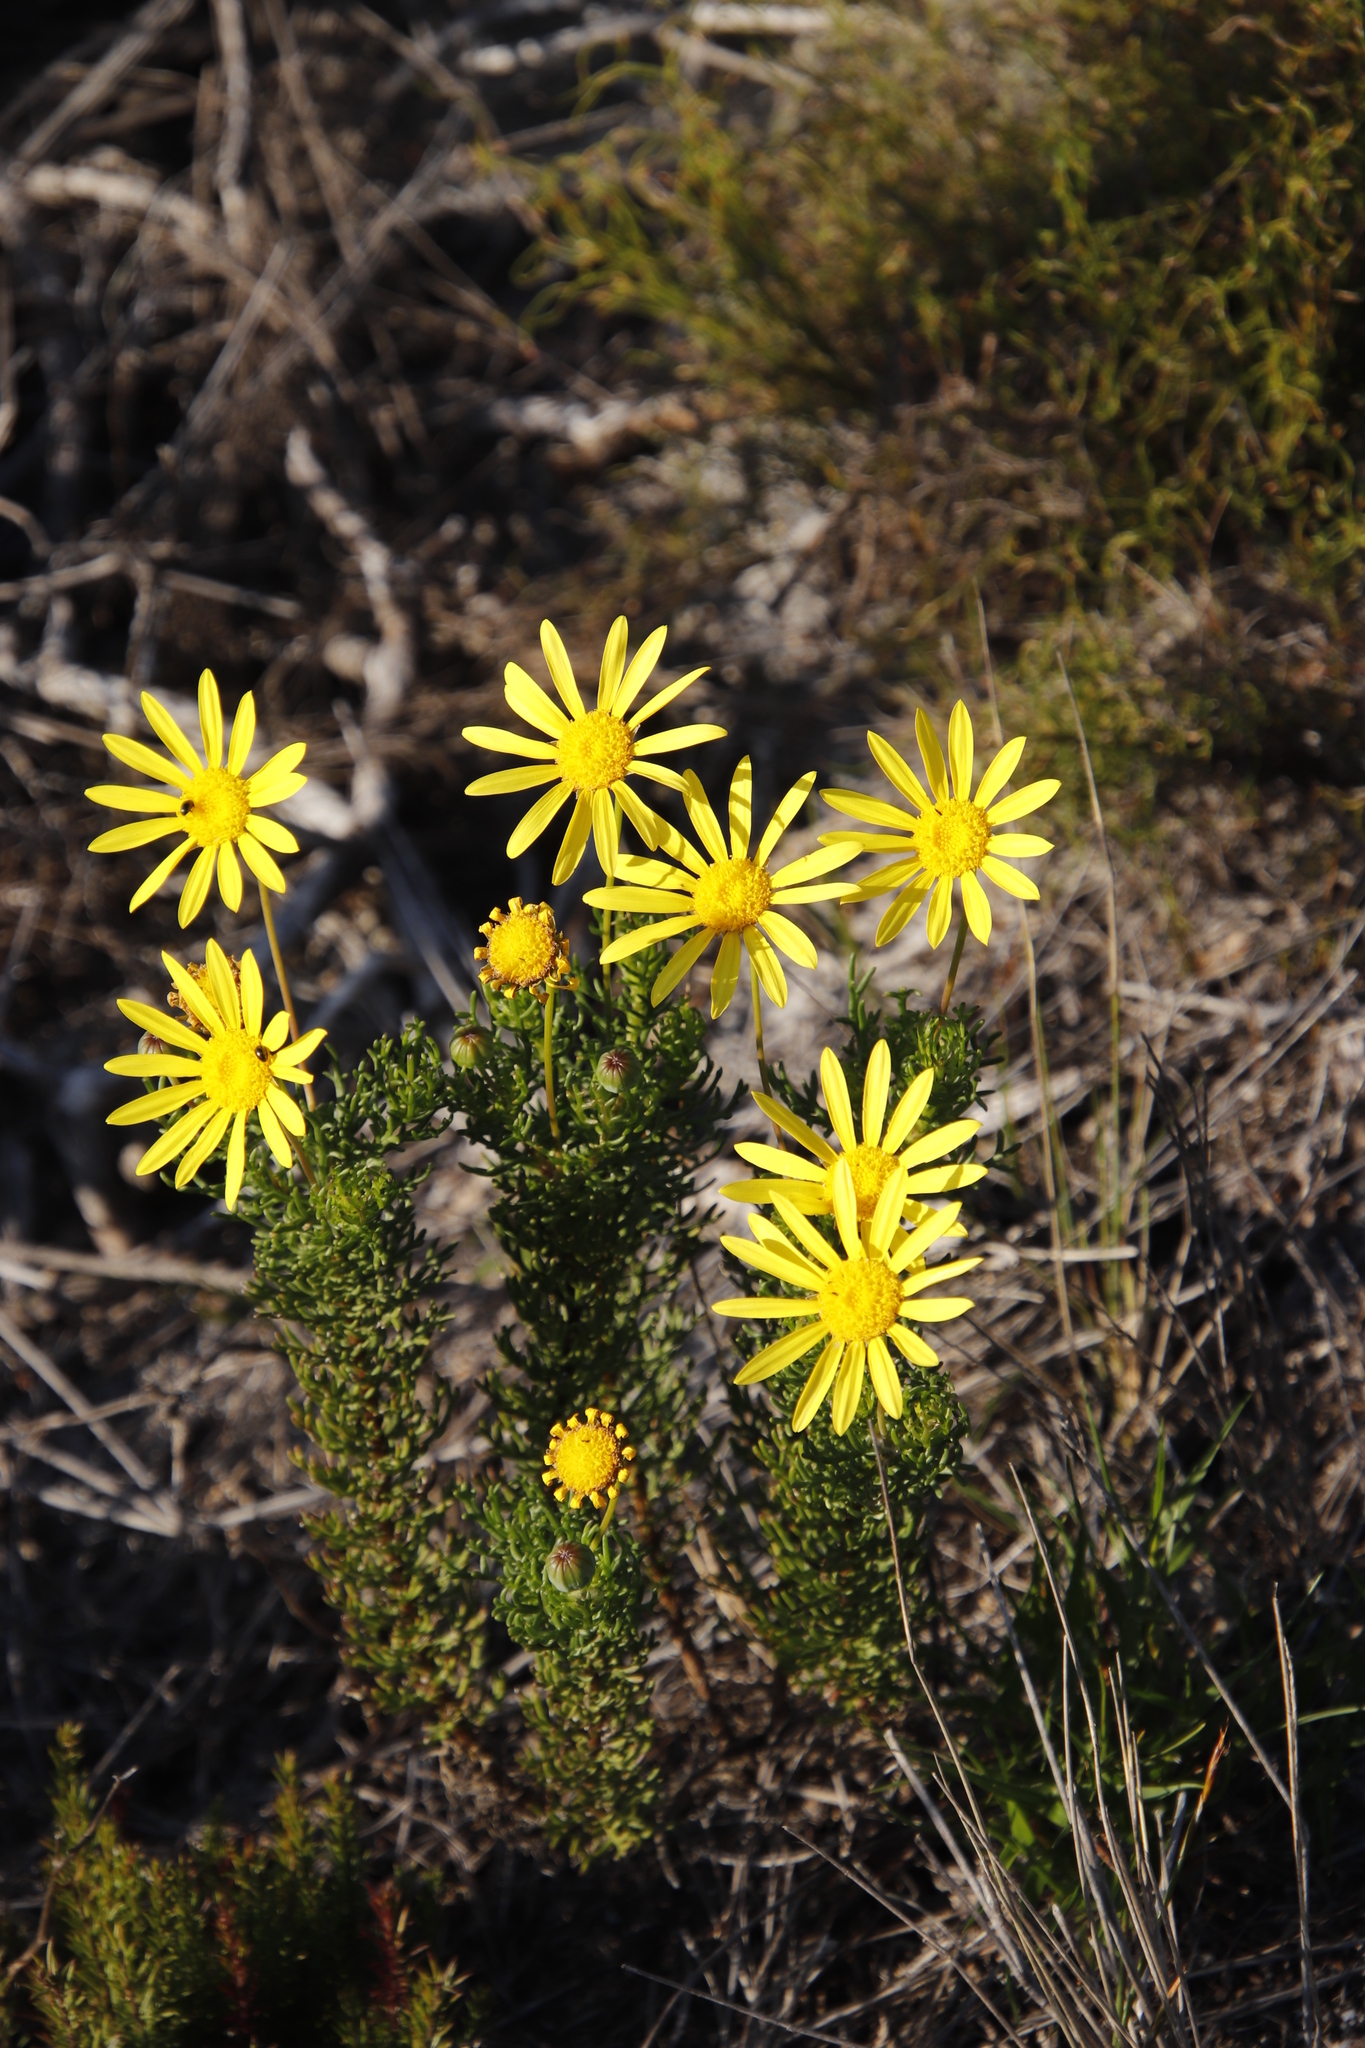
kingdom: Plantae
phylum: Tracheophyta
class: Magnoliopsida
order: Asterales
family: Asteraceae
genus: Euryops
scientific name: Euryops abrotanifolius
